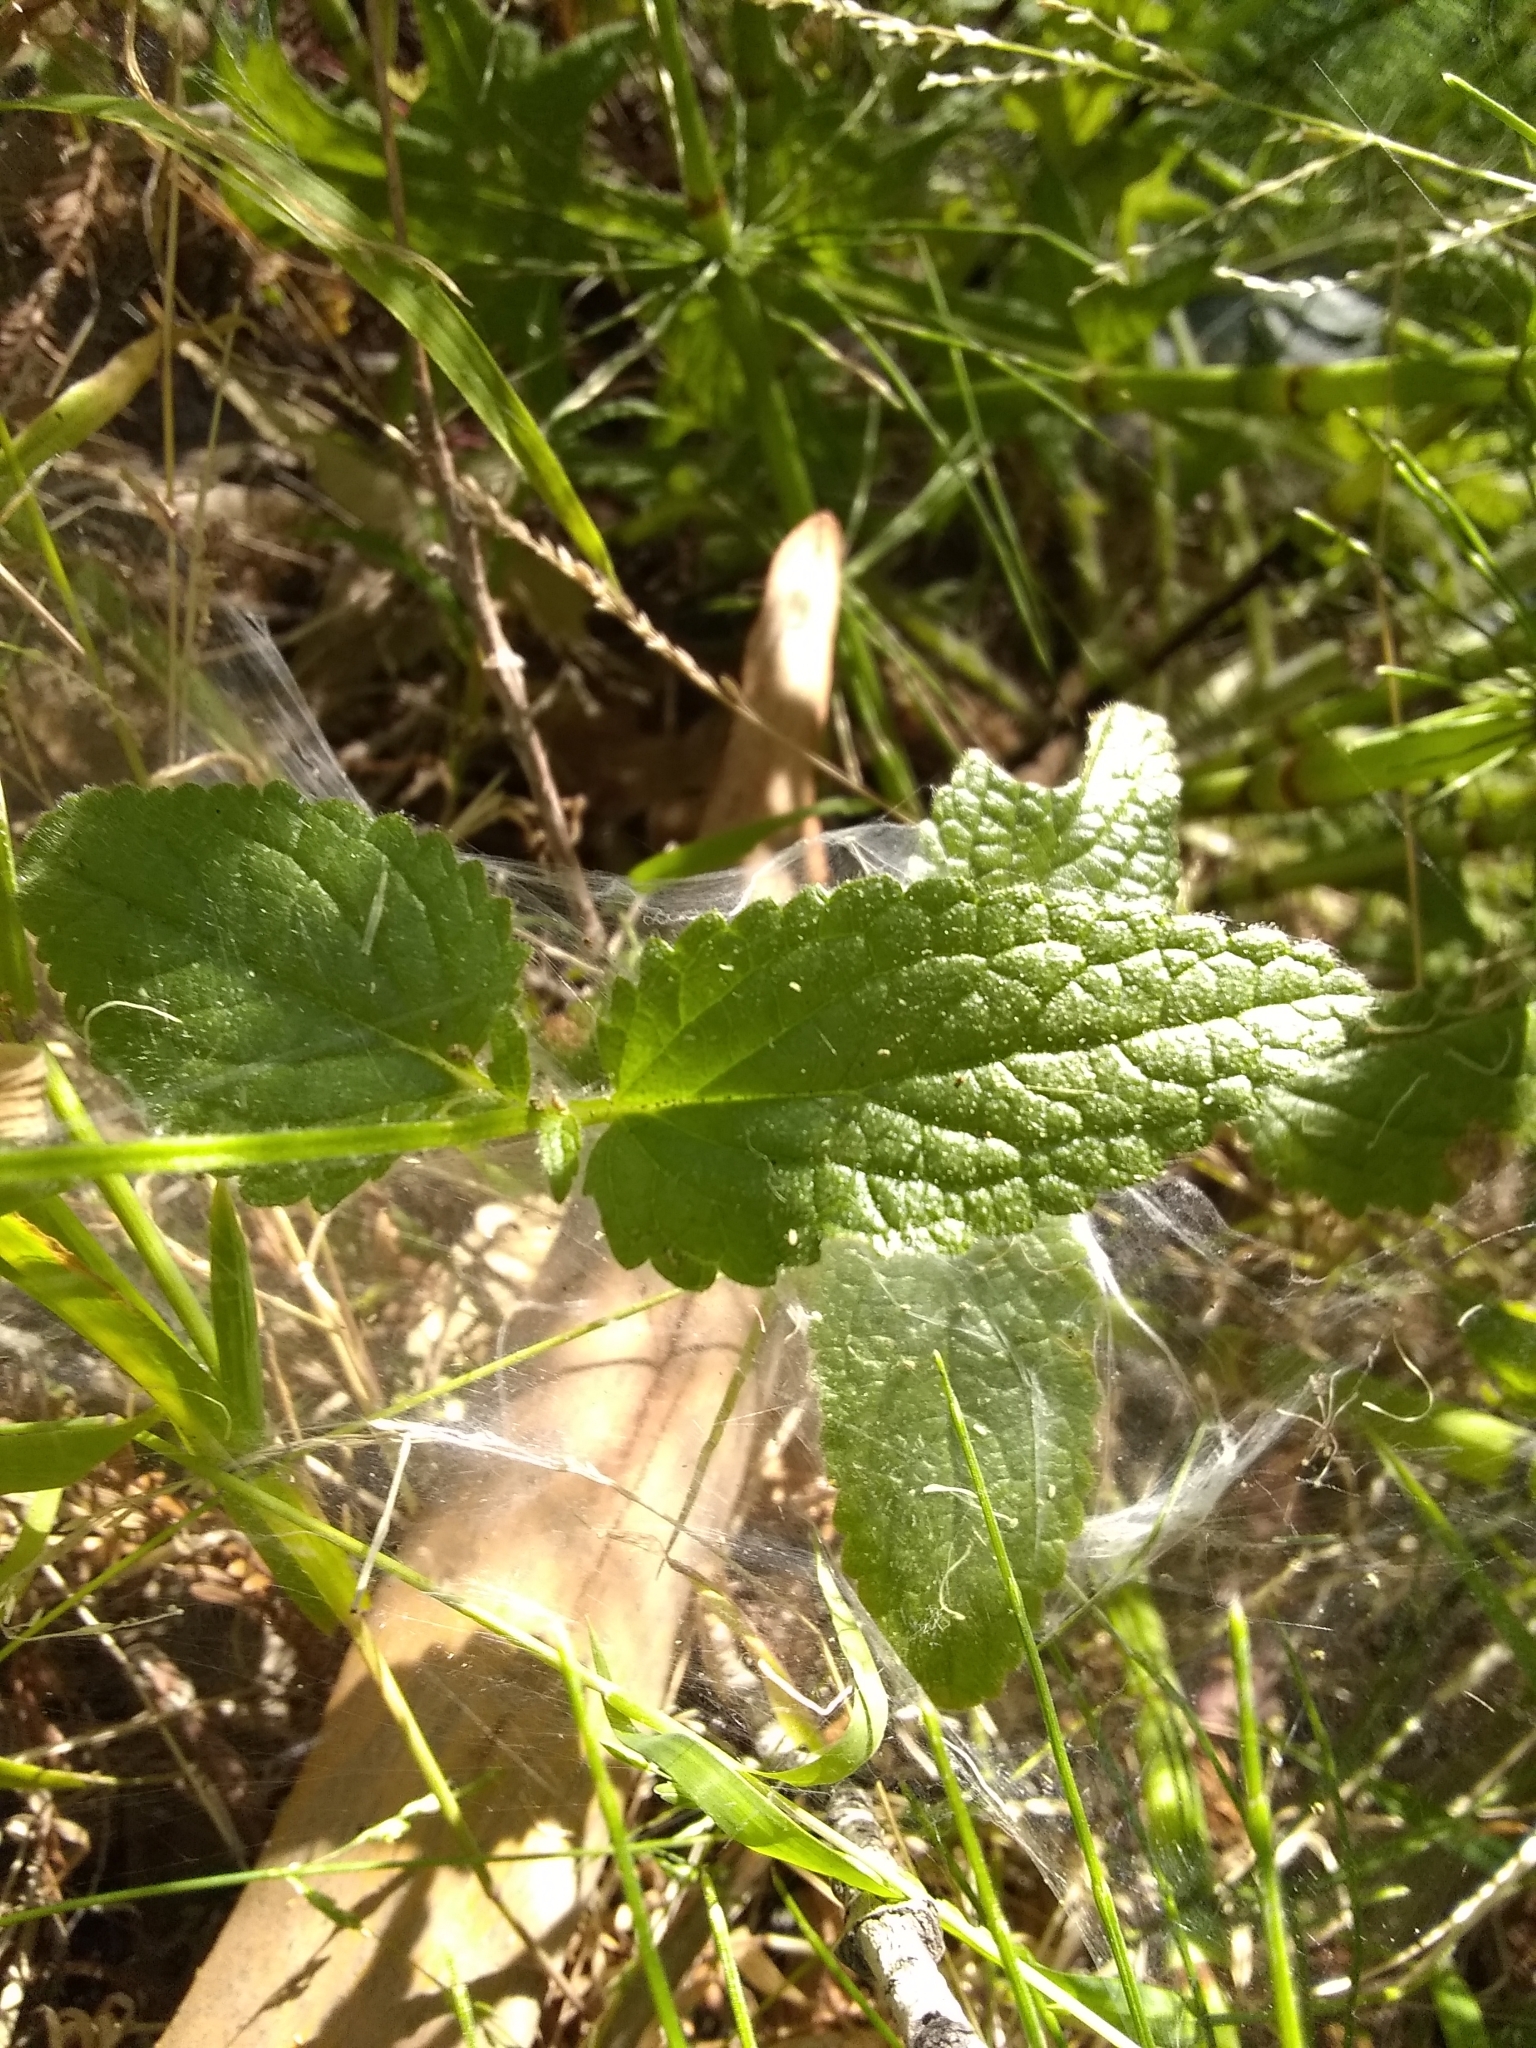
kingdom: Plantae
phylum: Tracheophyta
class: Magnoliopsida
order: Lamiales
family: Lamiaceae
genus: Stachys
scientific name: Stachys rigida
